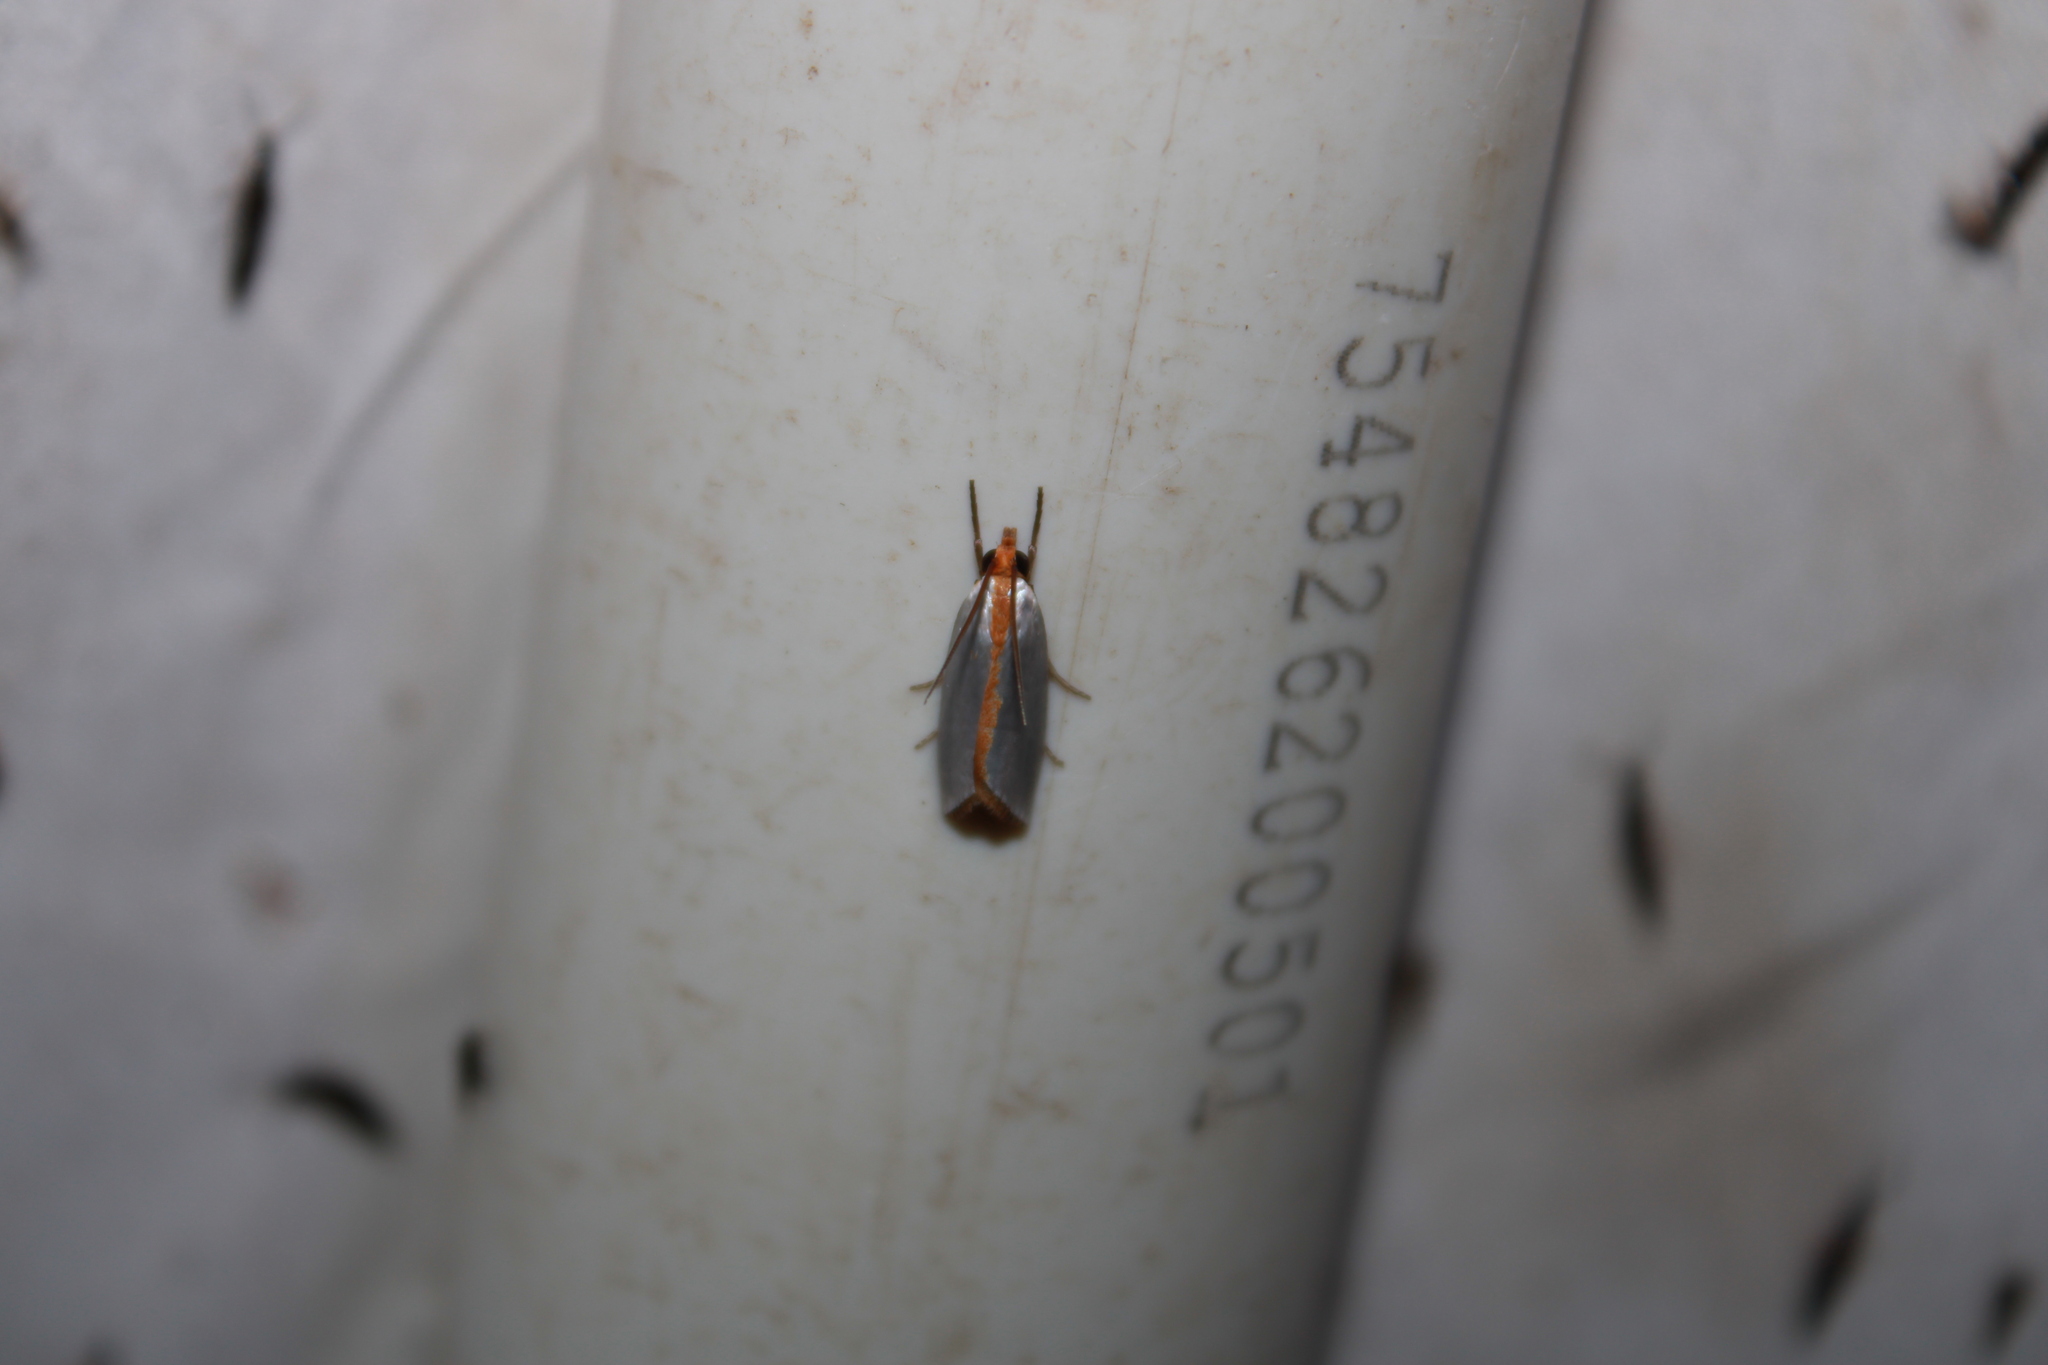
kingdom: Animalia
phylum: Arthropoda
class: Insecta
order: Lepidoptera
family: Crambidae
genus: Argyria
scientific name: Argyria
